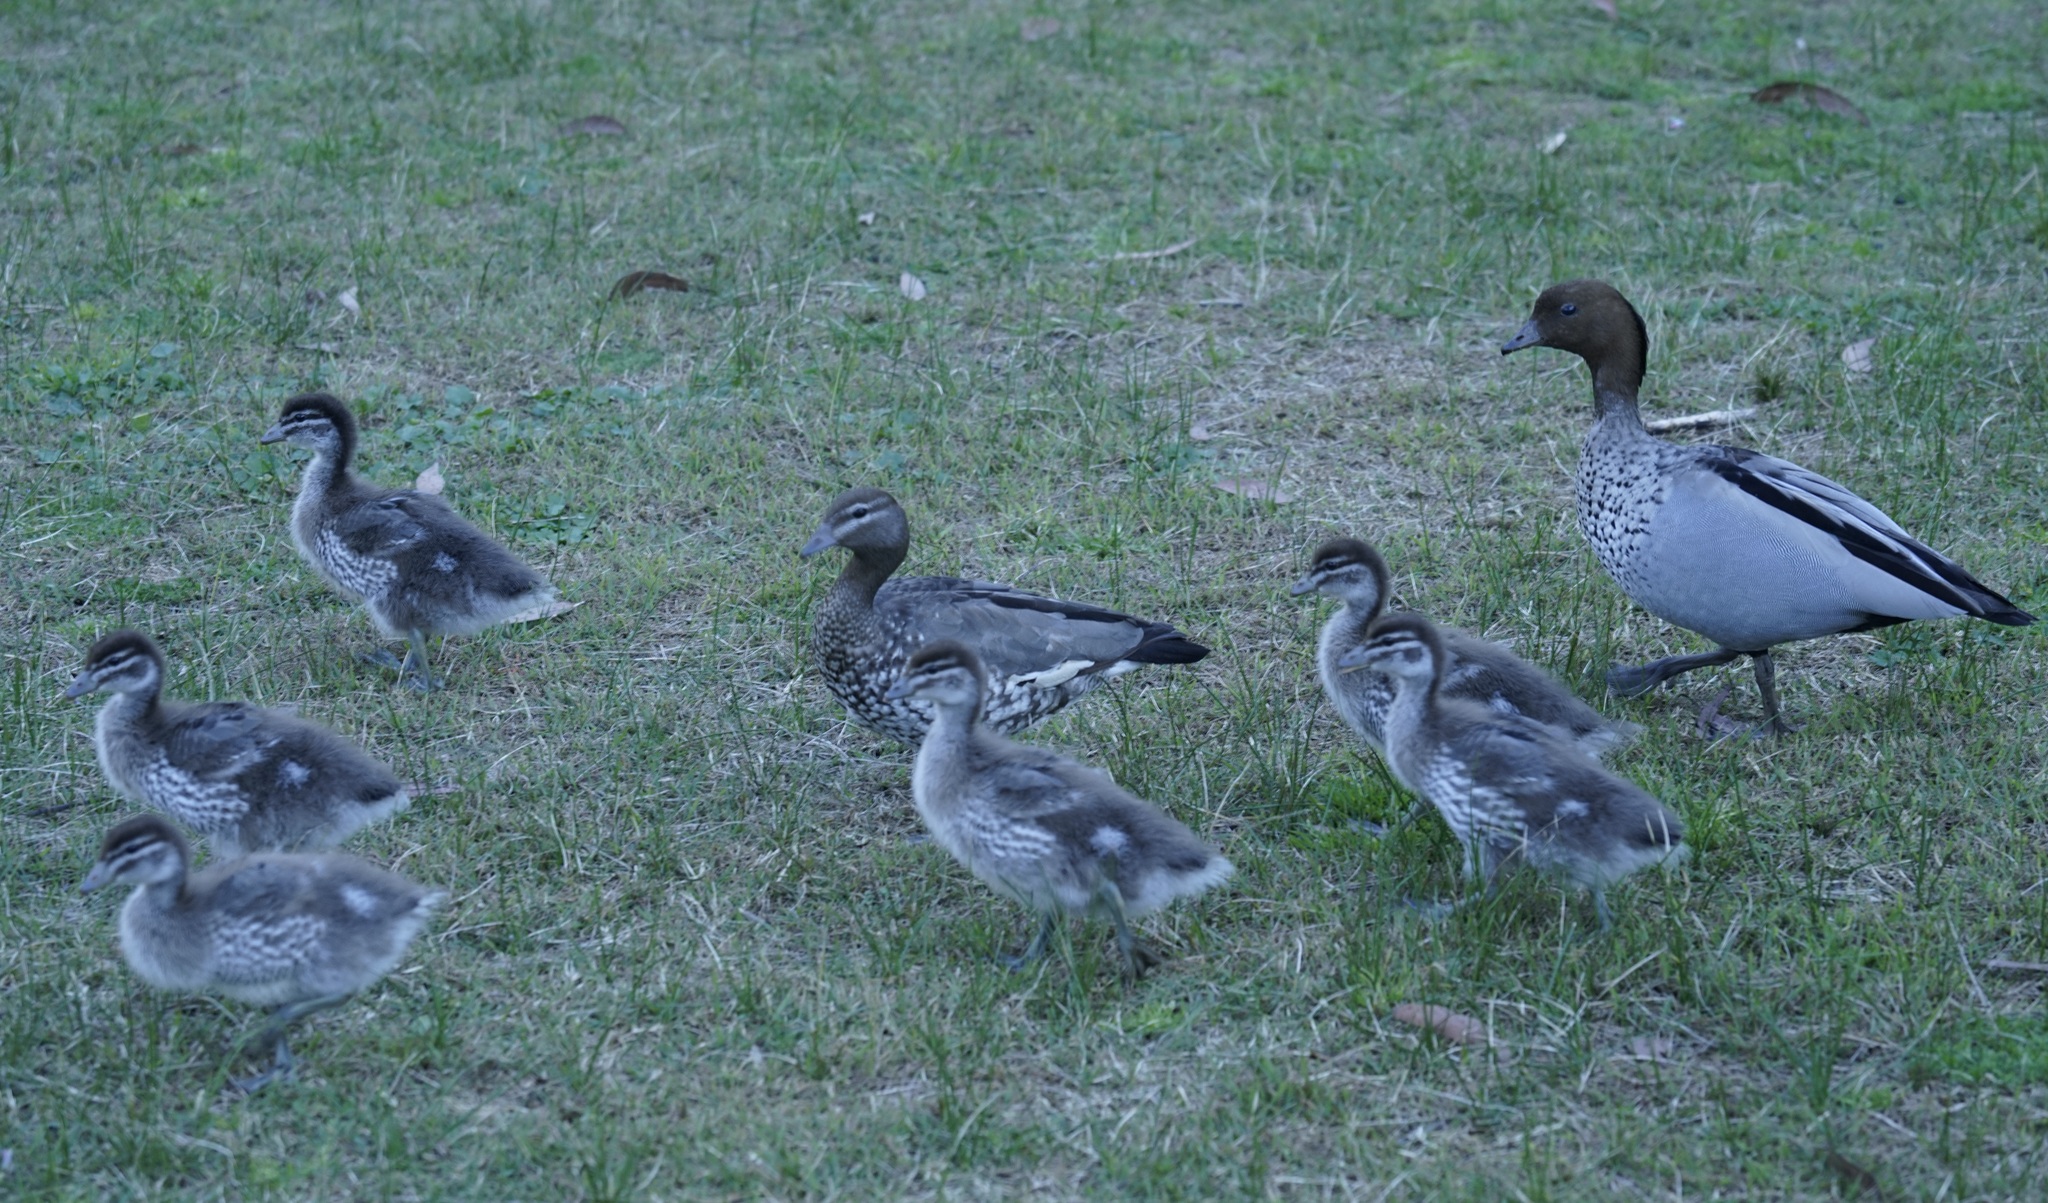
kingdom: Animalia
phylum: Chordata
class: Aves
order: Anseriformes
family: Anatidae
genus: Chenonetta
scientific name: Chenonetta jubata
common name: Maned duck
